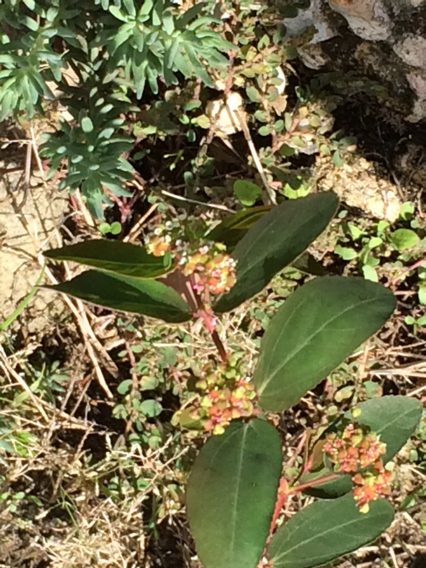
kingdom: Plantae
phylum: Tracheophyta
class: Magnoliopsida
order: Malpighiales
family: Euphorbiaceae
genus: Euphorbia
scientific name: Euphorbia hypericifolia
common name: Graceful sandmat
